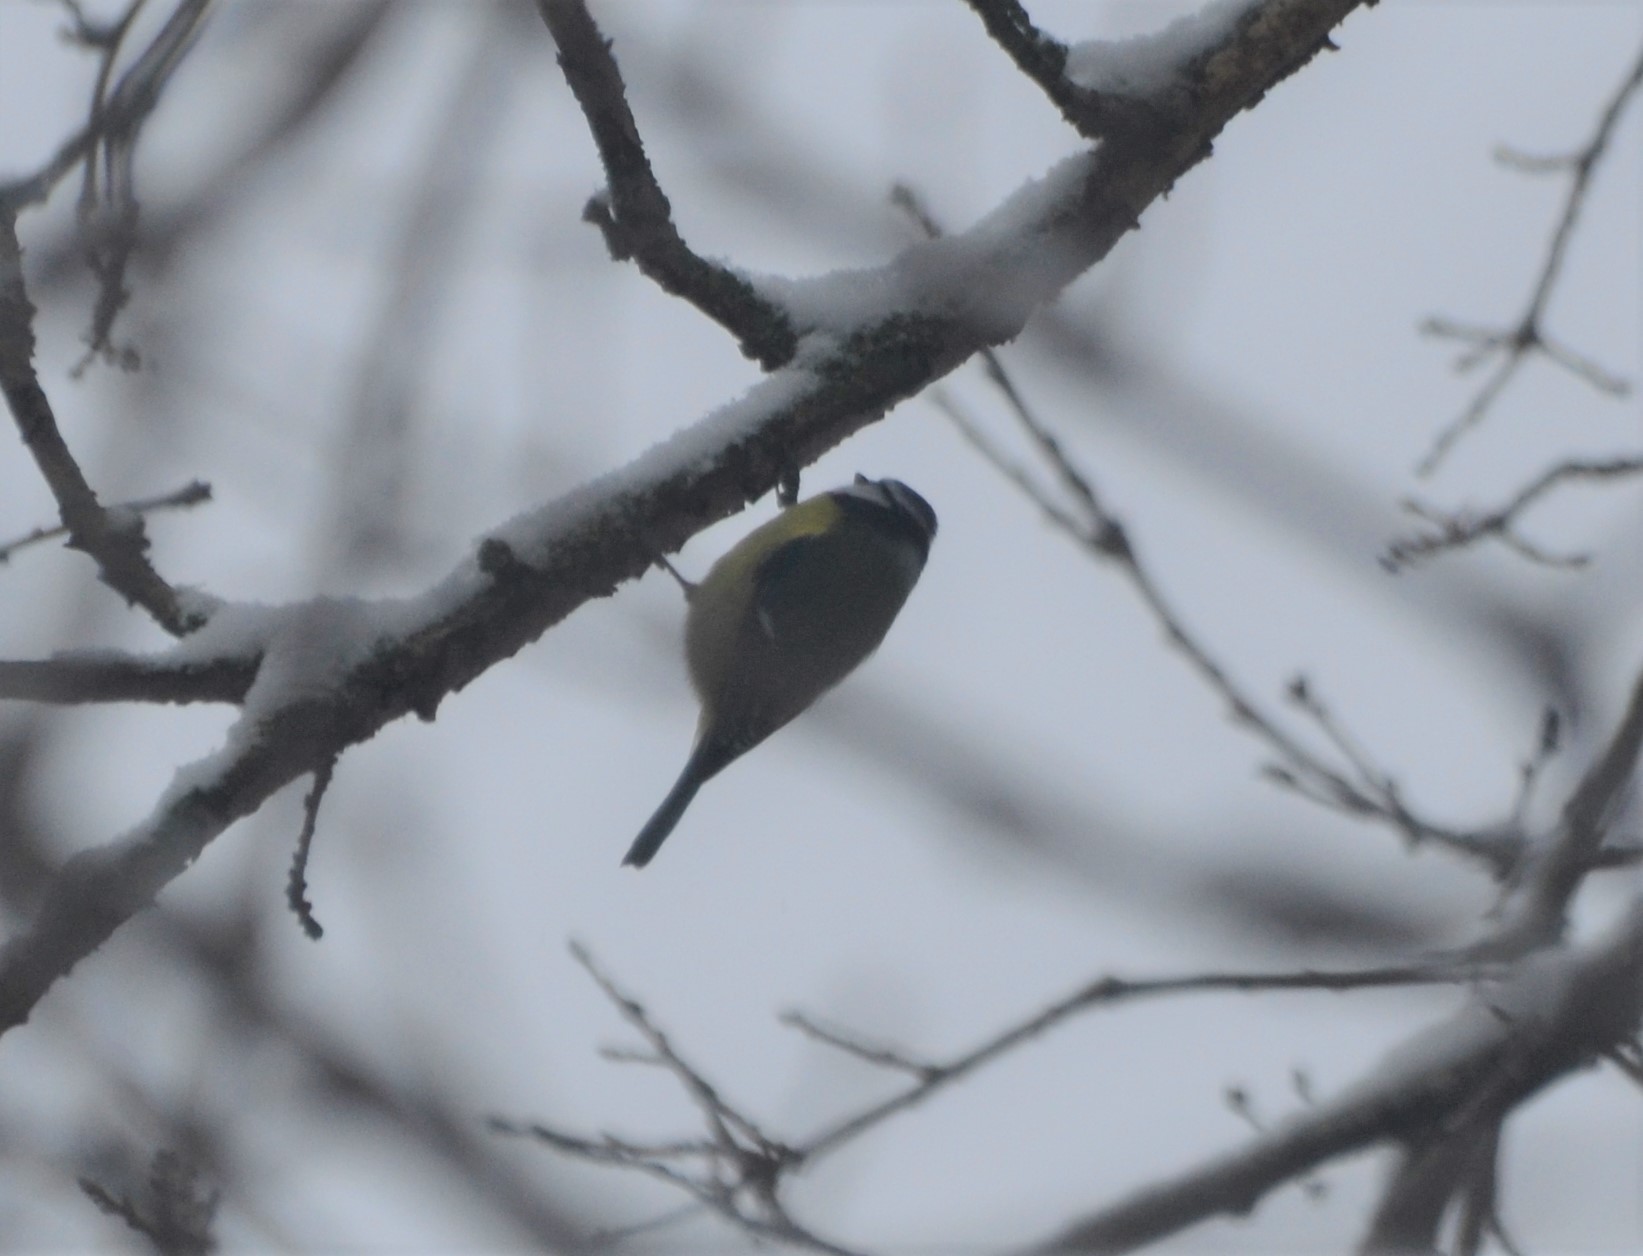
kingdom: Animalia
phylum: Chordata
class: Aves
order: Passeriformes
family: Paridae
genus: Cyanistes
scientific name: Cyanistes caeruleus
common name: Eurasian blue tit
